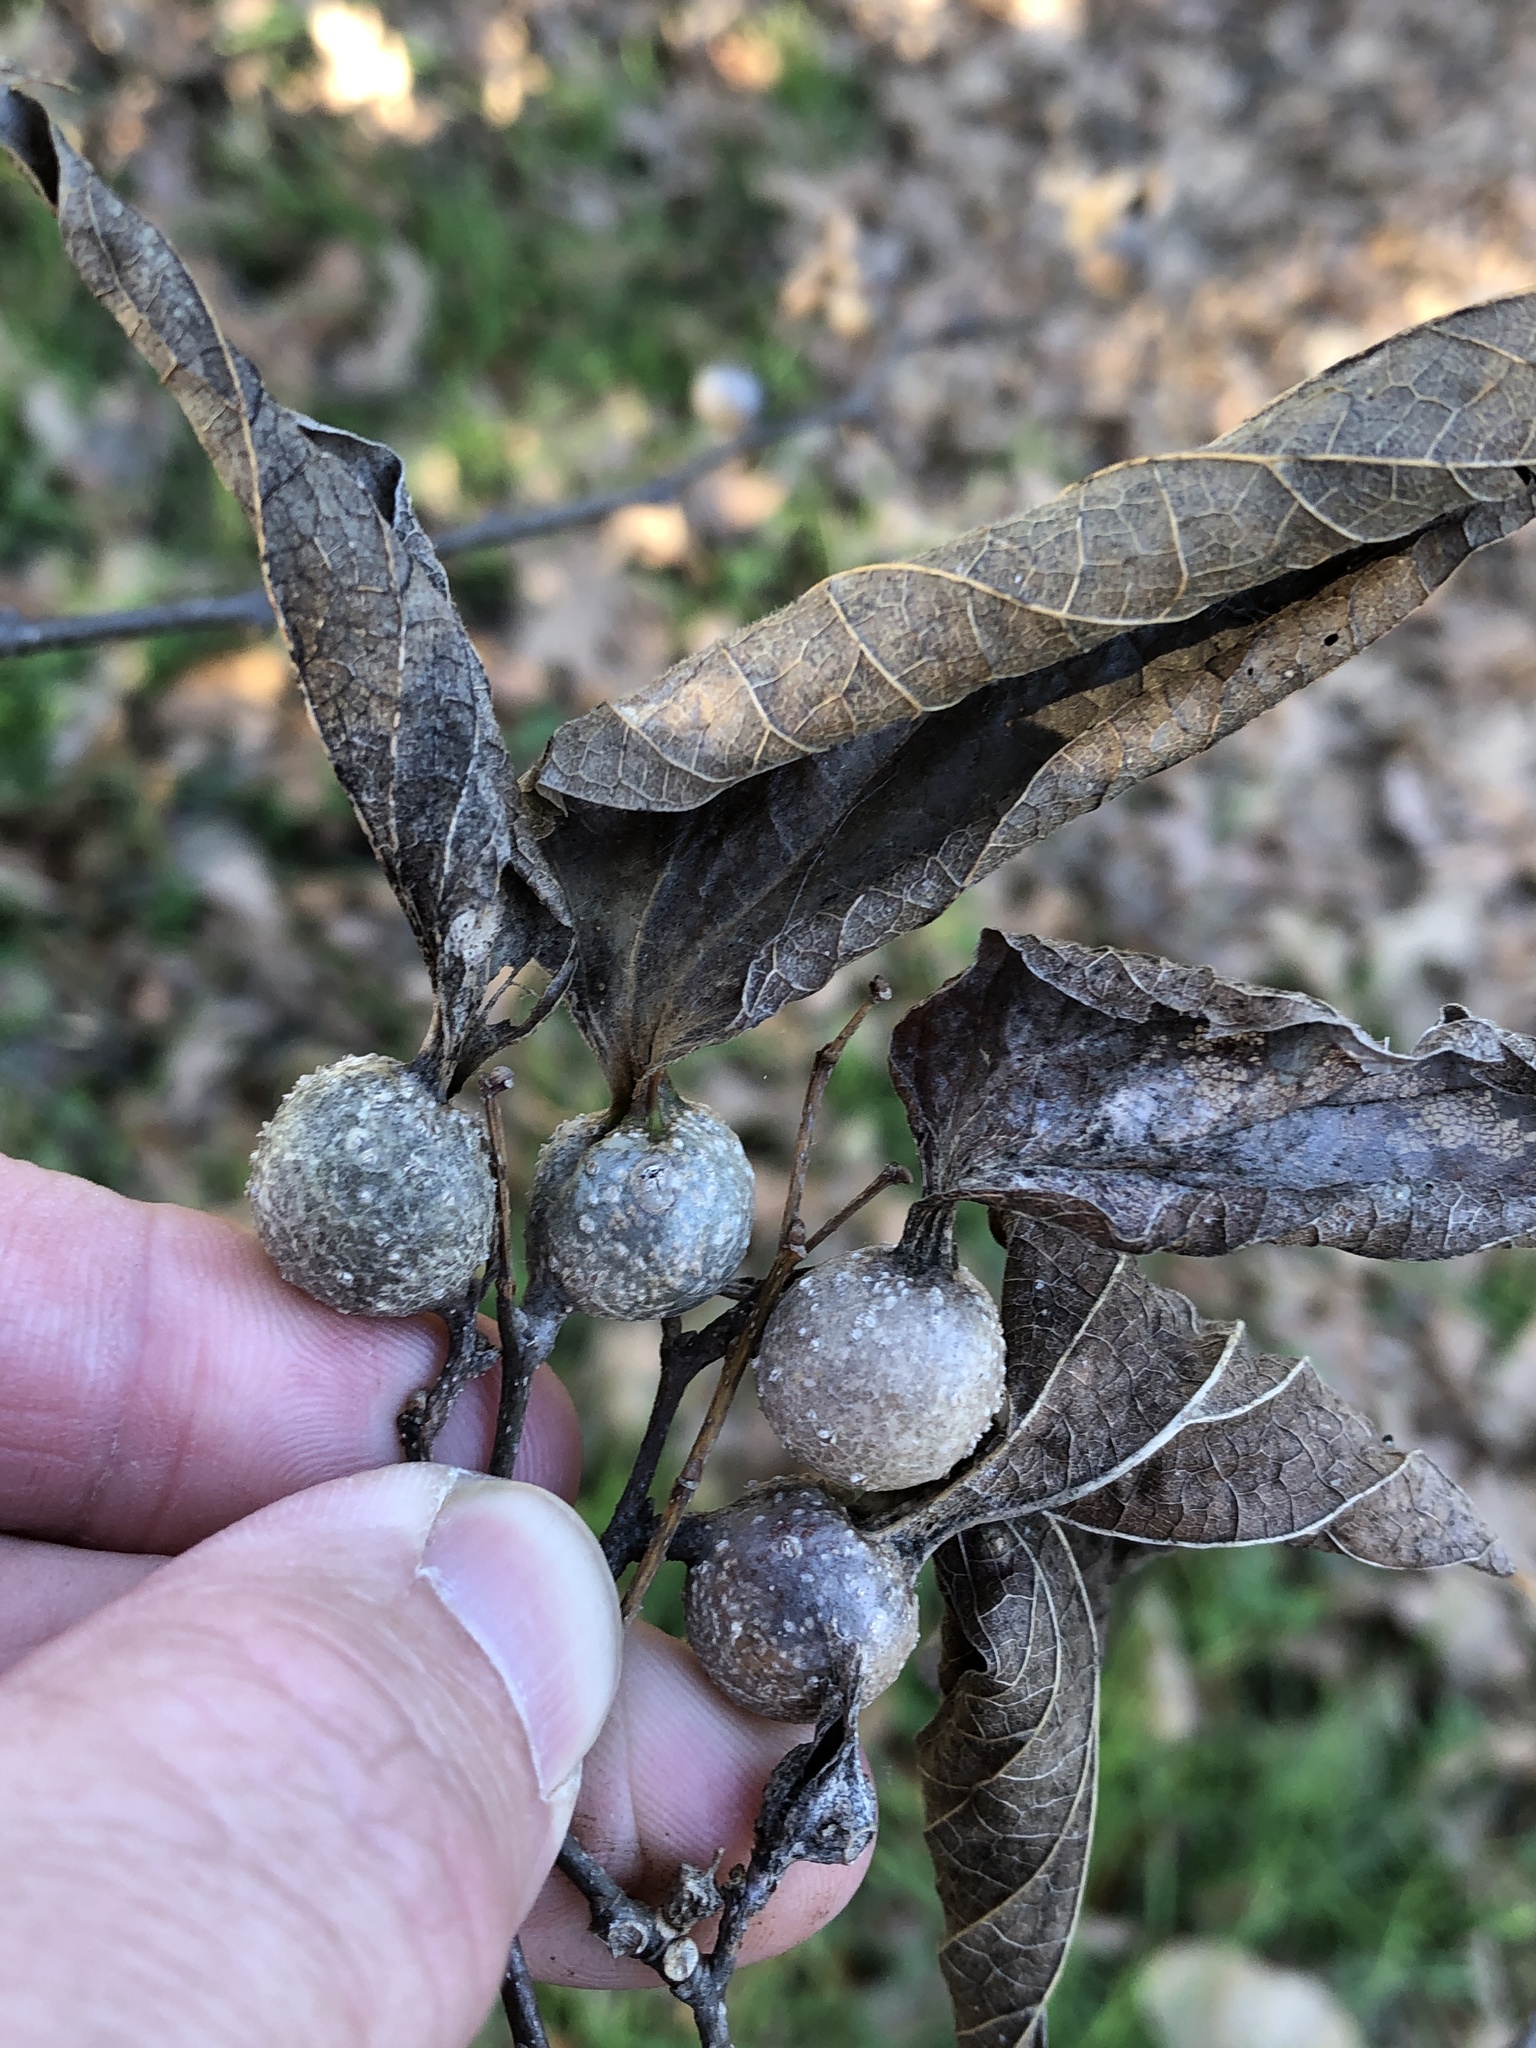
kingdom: Animalia
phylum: Arthropoda
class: Insecta
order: Hemiptera
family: Aphalaridae
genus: Pachypsylla
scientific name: Pachypsylla venusta
